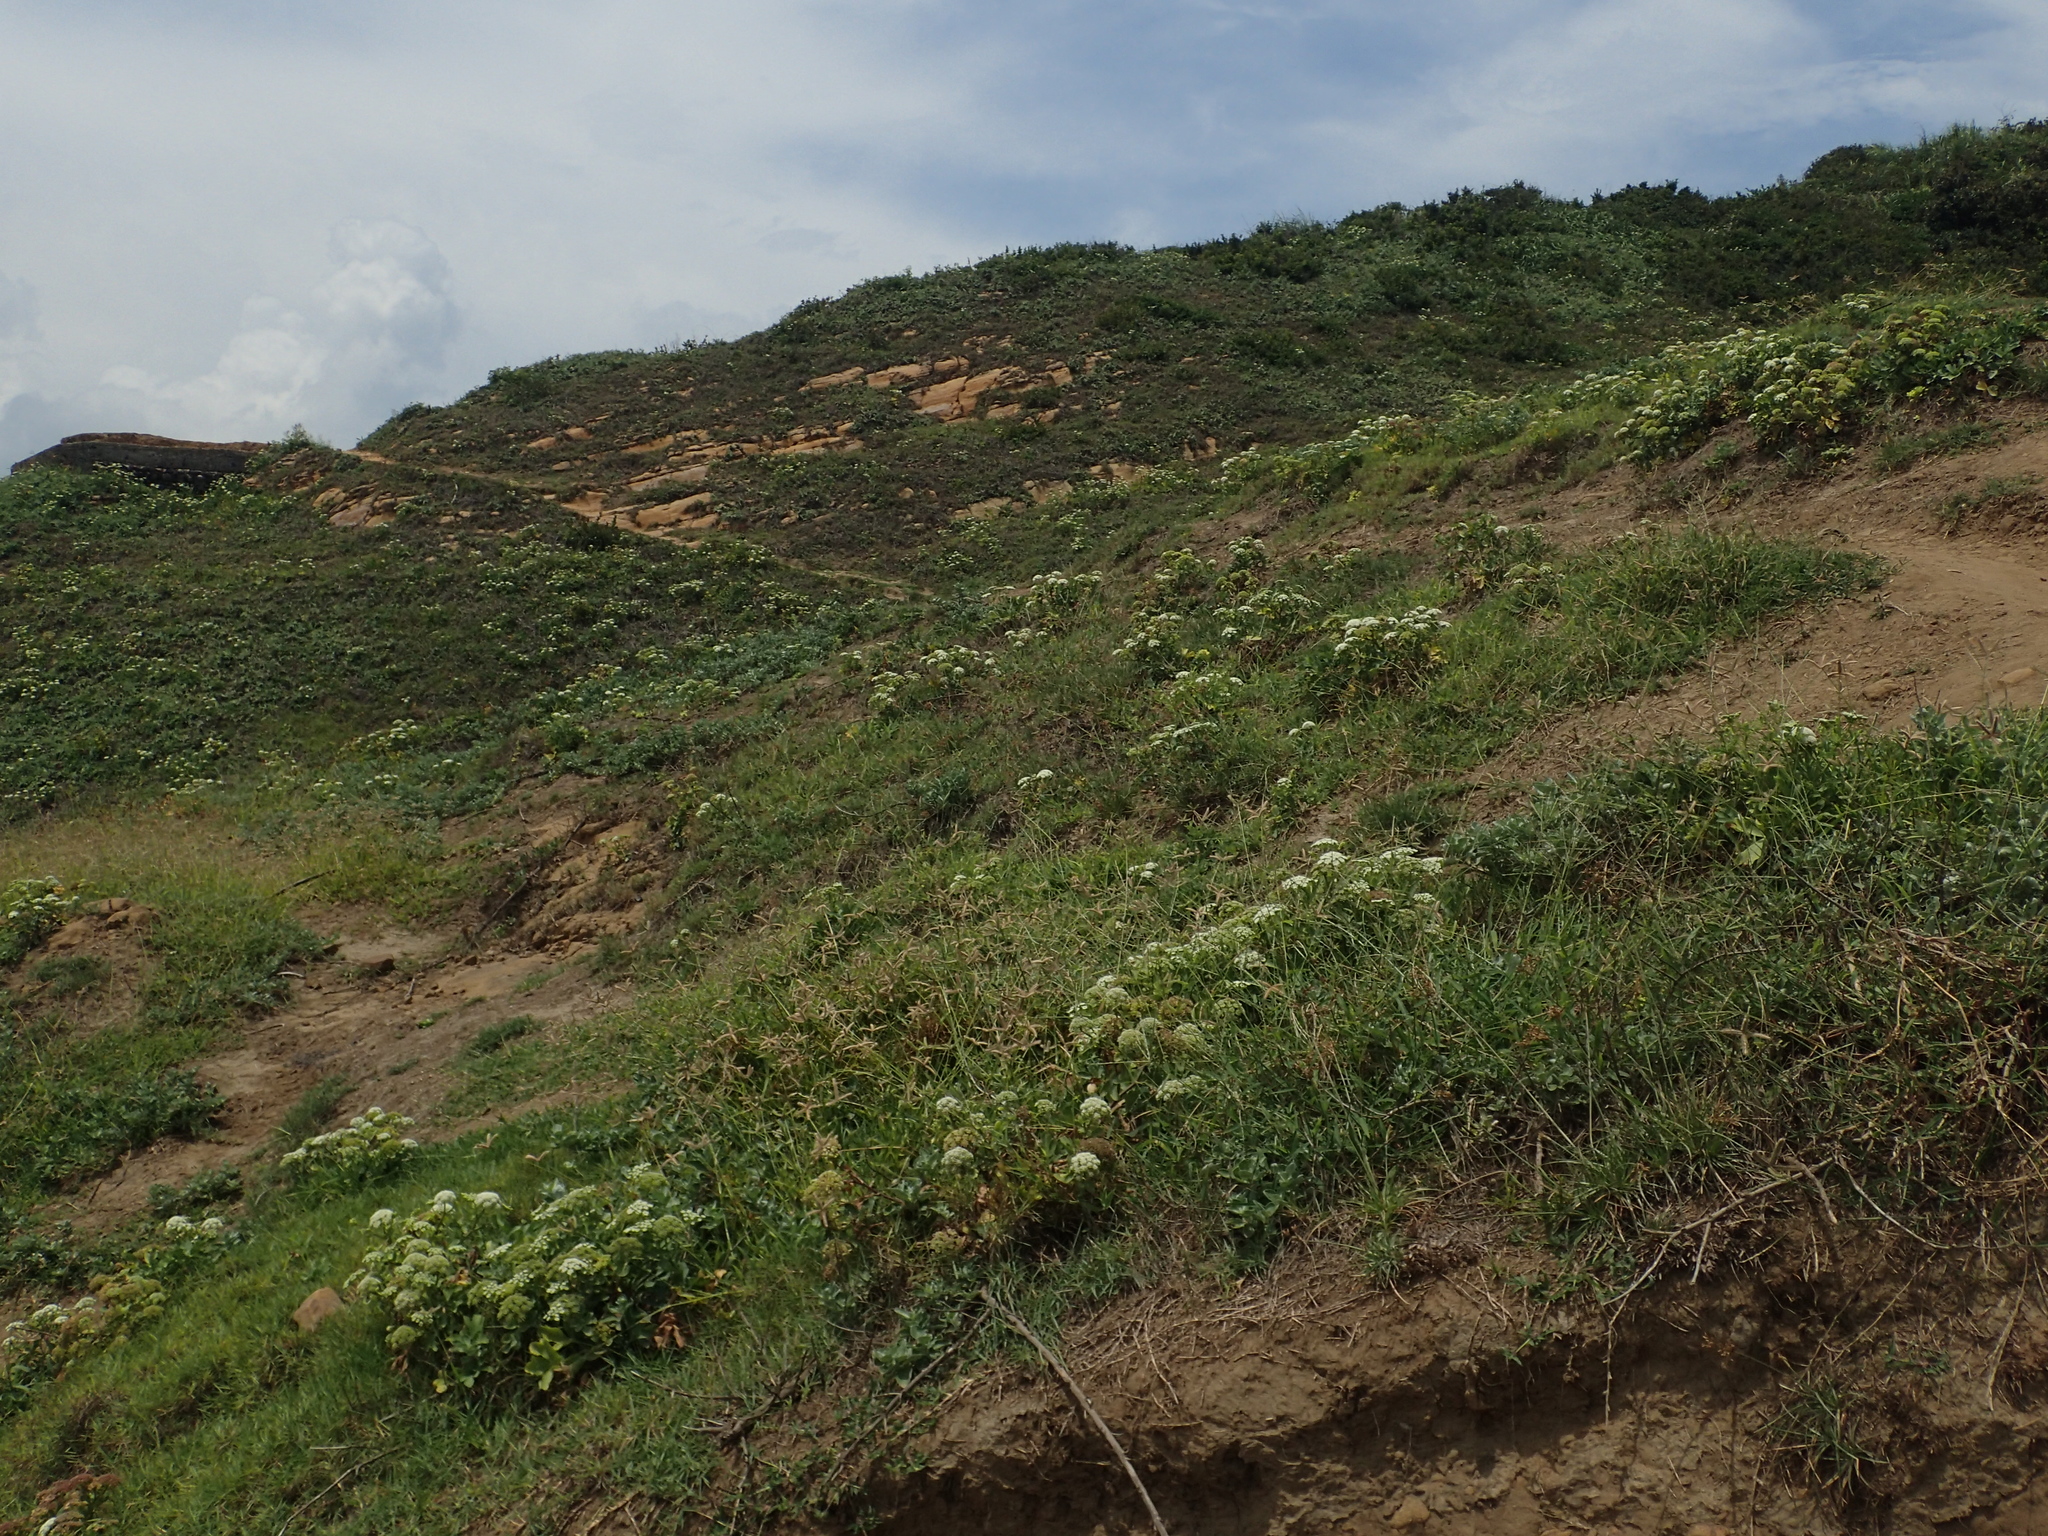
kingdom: Plantae
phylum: Tracheophyta
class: Magnoliopsida
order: Apiales
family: Apiaceae
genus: Peucedanum
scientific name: Peucedanum japonicum
